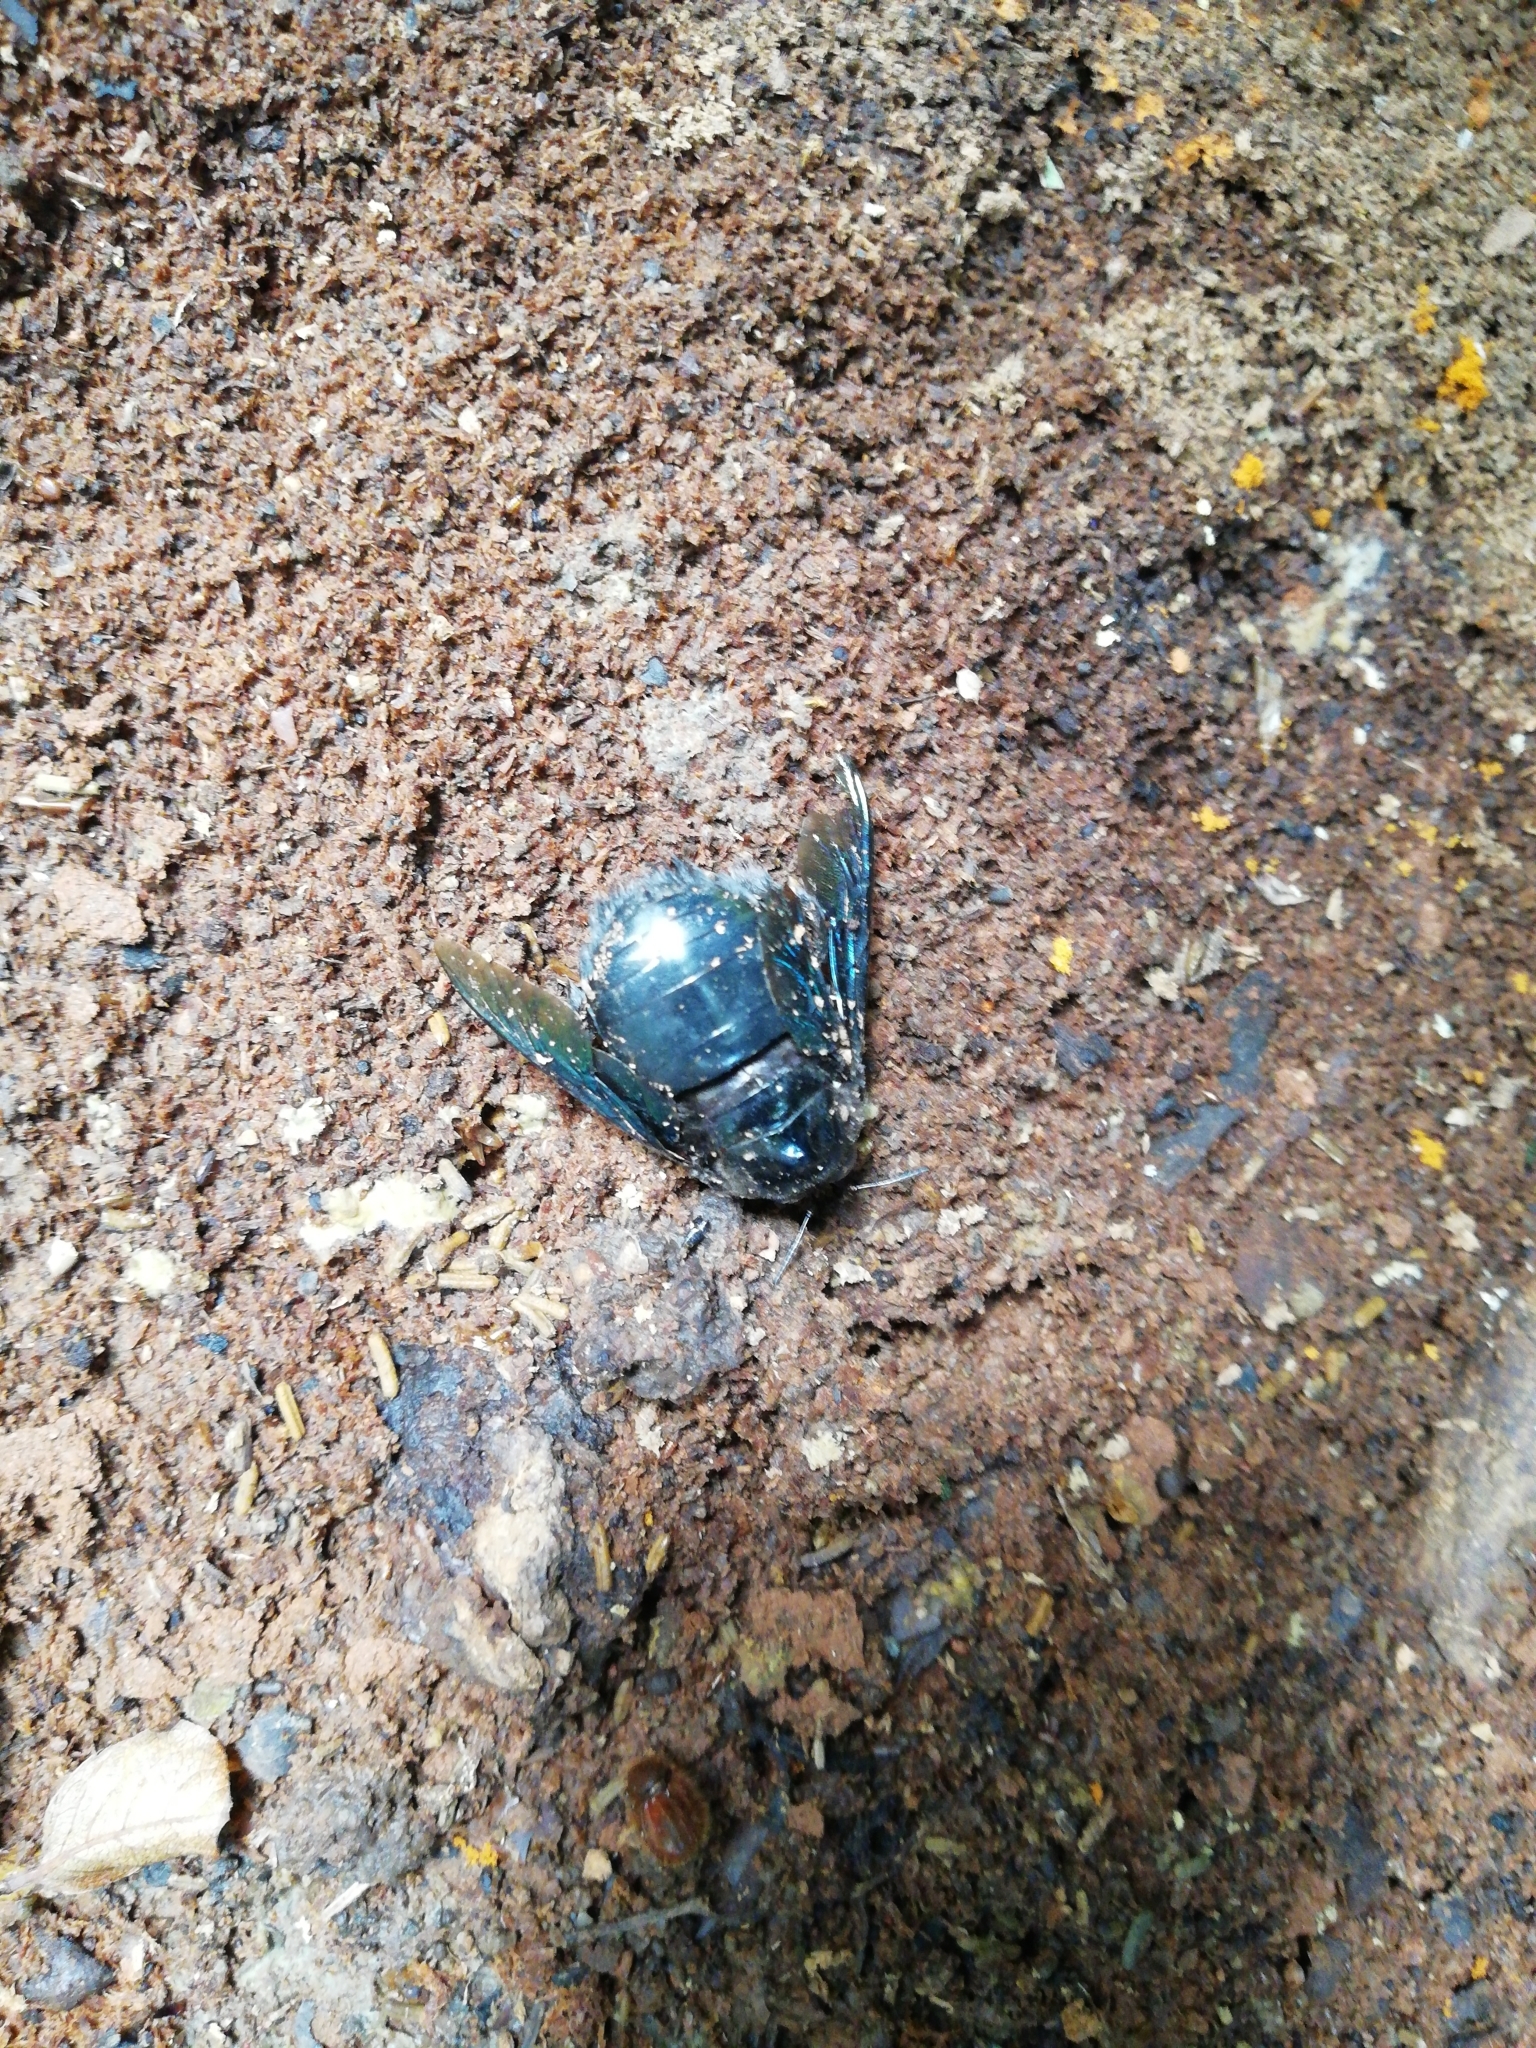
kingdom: Animalia
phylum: Arthropoda
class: Insecta
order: Hymenoptera
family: Apidae
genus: Xylocopa
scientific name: Xylocopa tenuiscapa
